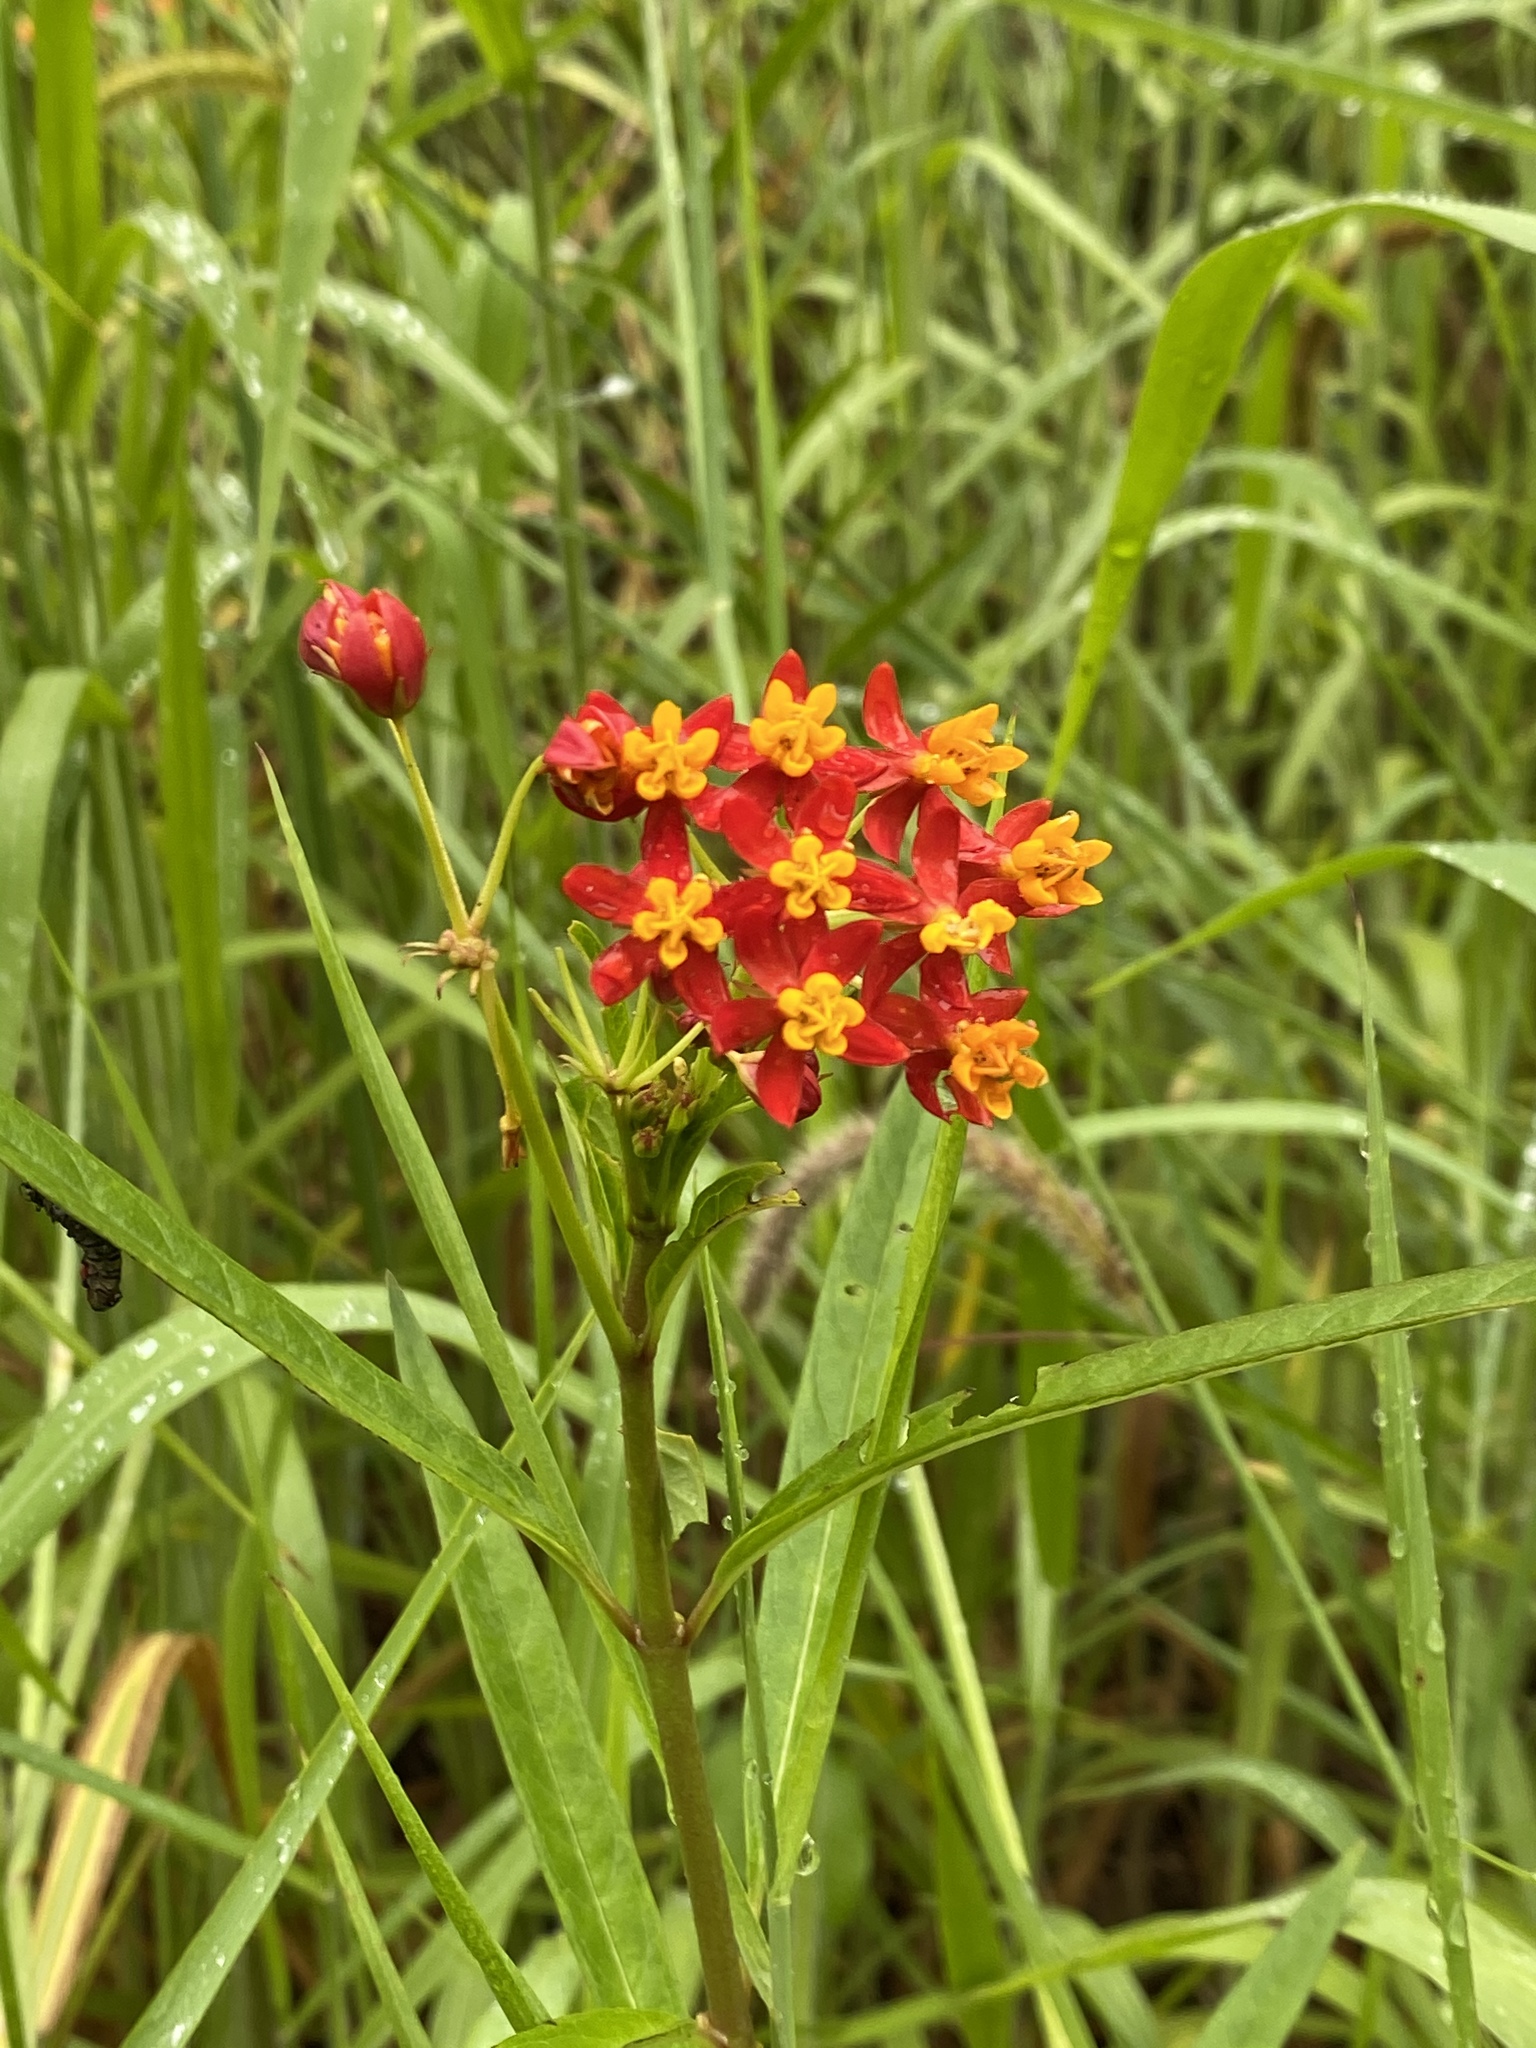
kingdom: Plantae
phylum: Tracheophyta
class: Magnoliopsida
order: Gentianales
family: Apocynaceae
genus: Asclepias
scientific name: Asclepias curassavica
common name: Bloodflower
